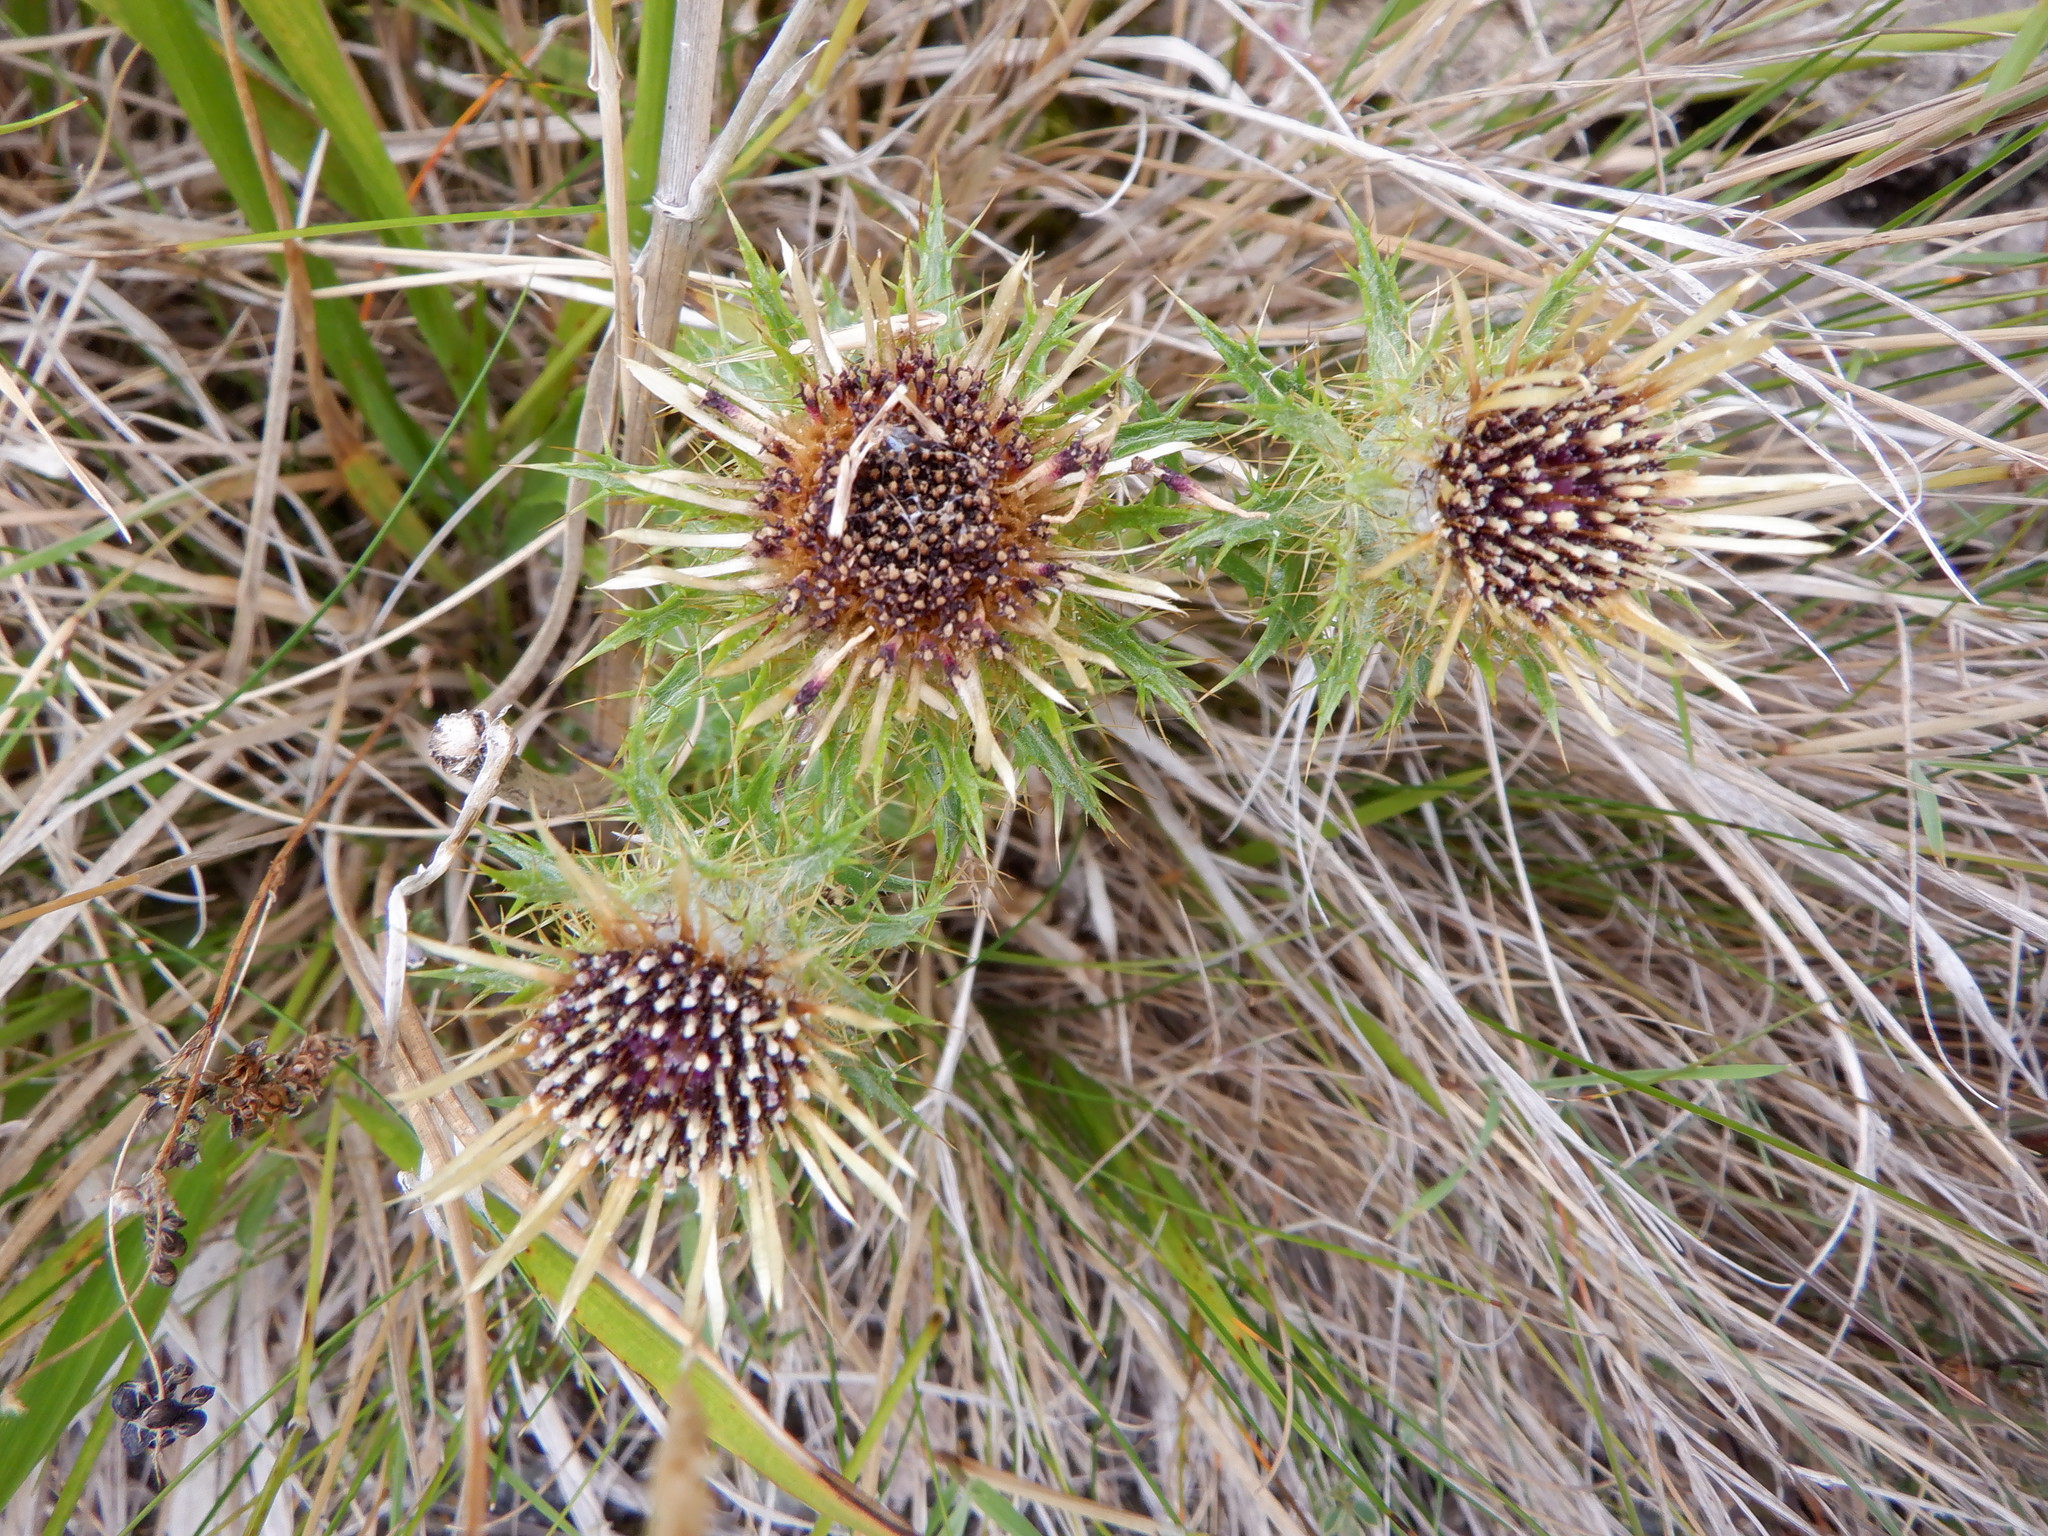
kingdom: Plantae
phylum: Tracheophyta
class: Magnoliopsida
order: Asterales
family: Asteraceae
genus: Carlina
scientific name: Carlina vulgaris
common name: Carline thistle
